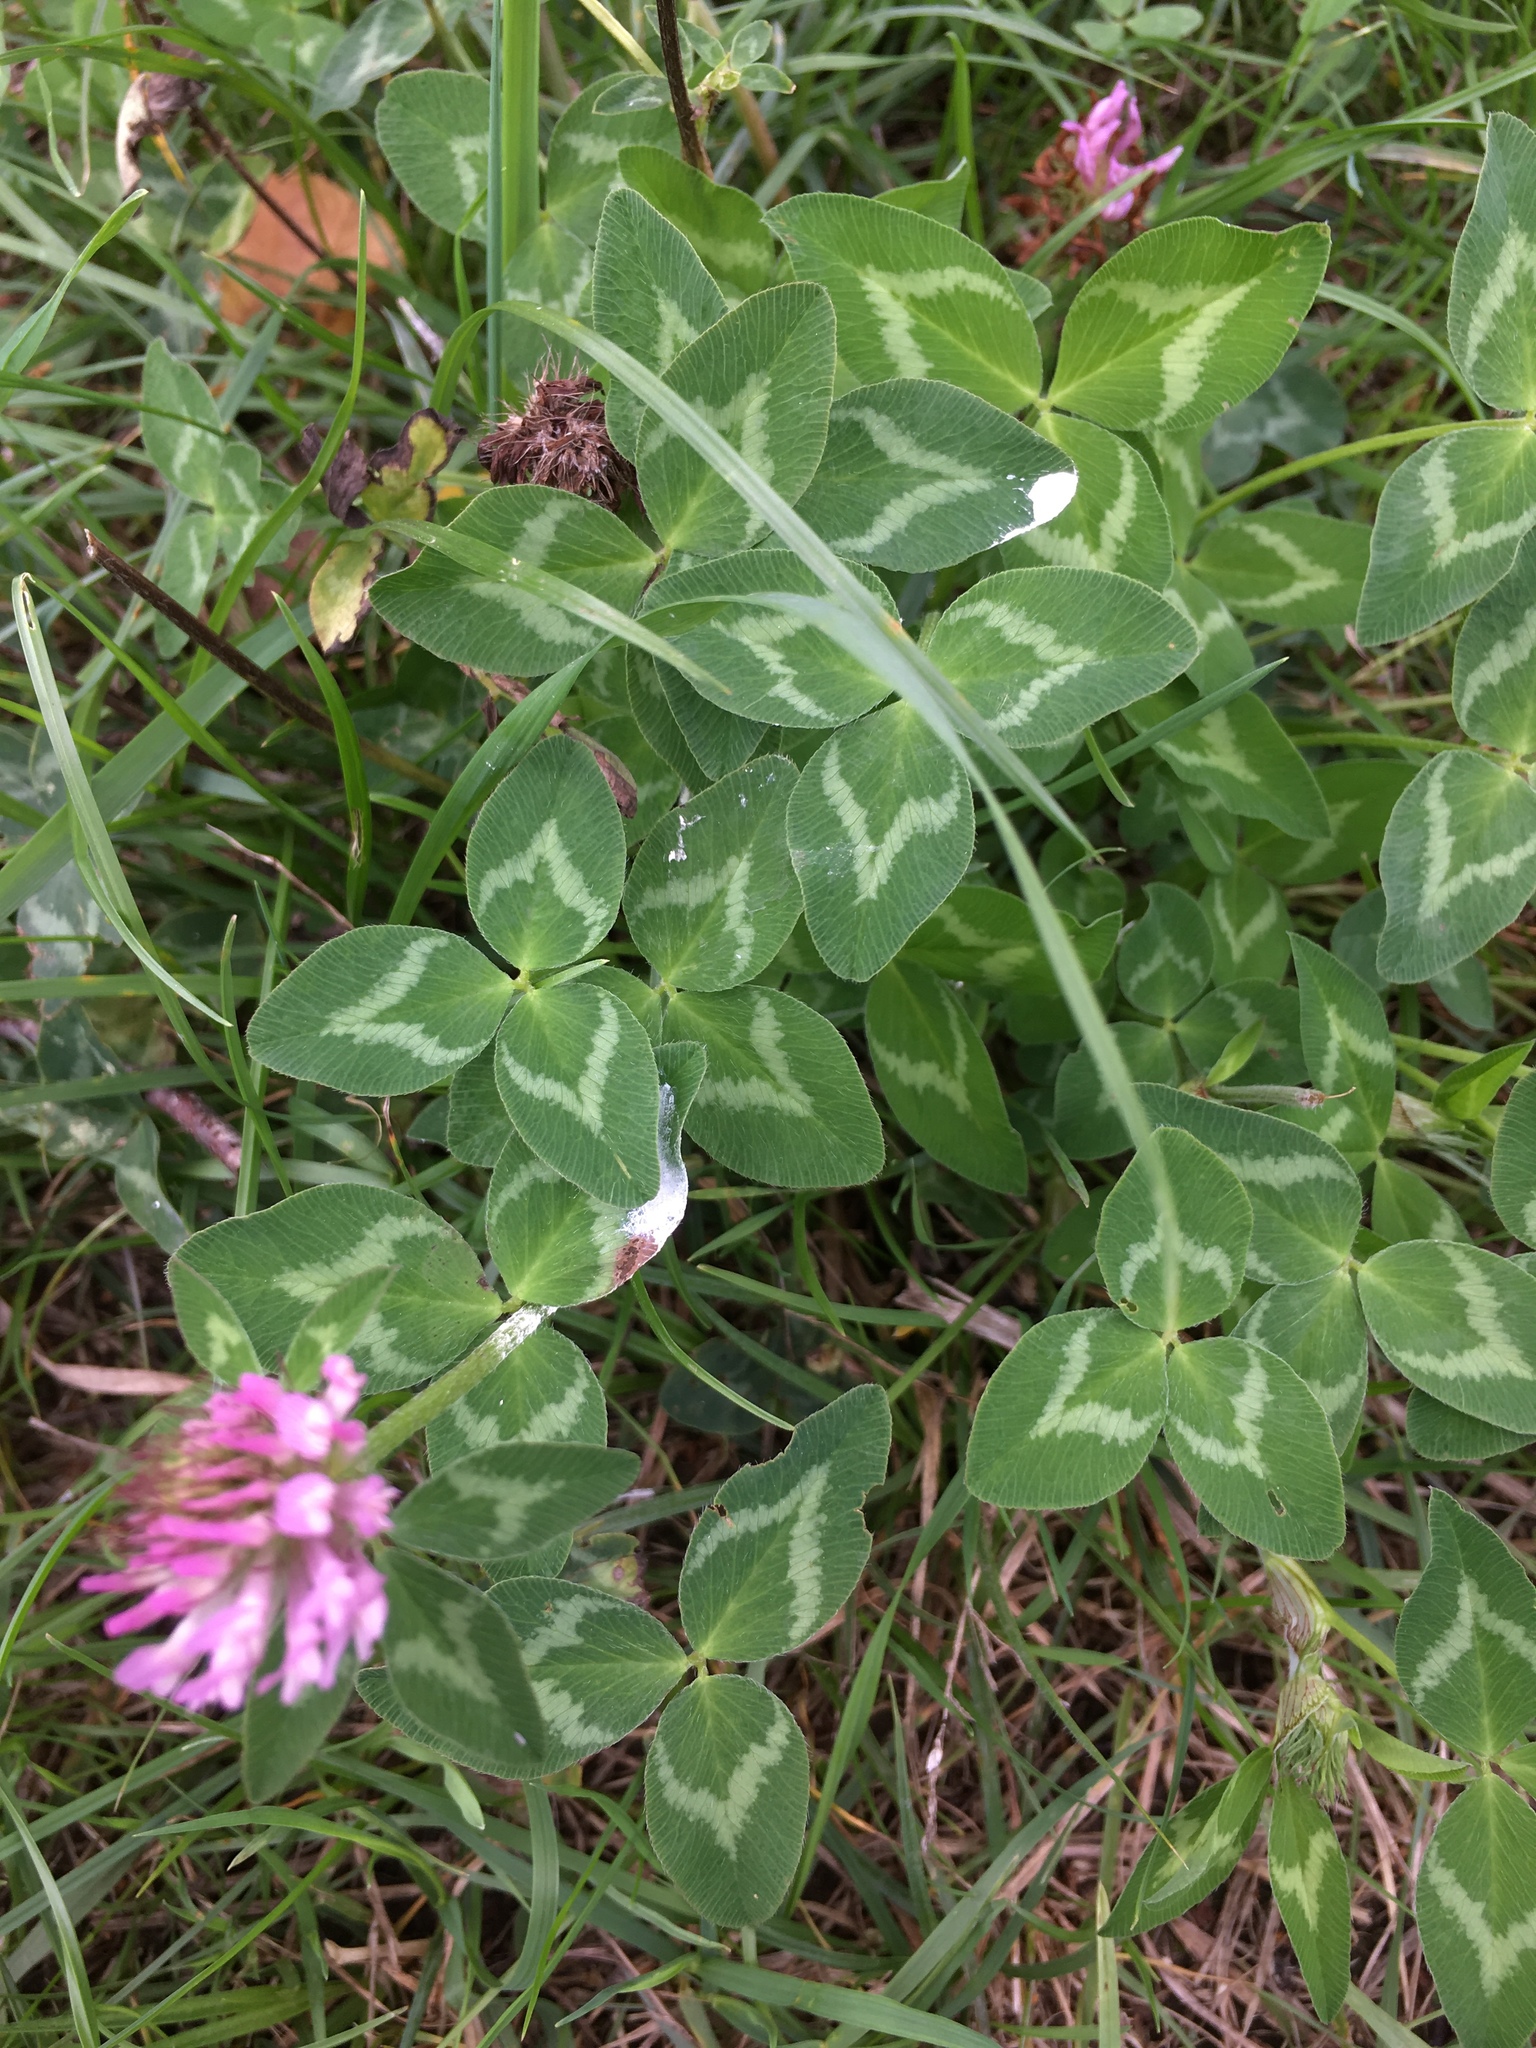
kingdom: Plantae
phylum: Tracheophyta
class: Magnoliopsida
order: Fabales
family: Fabaceae
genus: Trifolium
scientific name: Trifolium pratense
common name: Red clover
